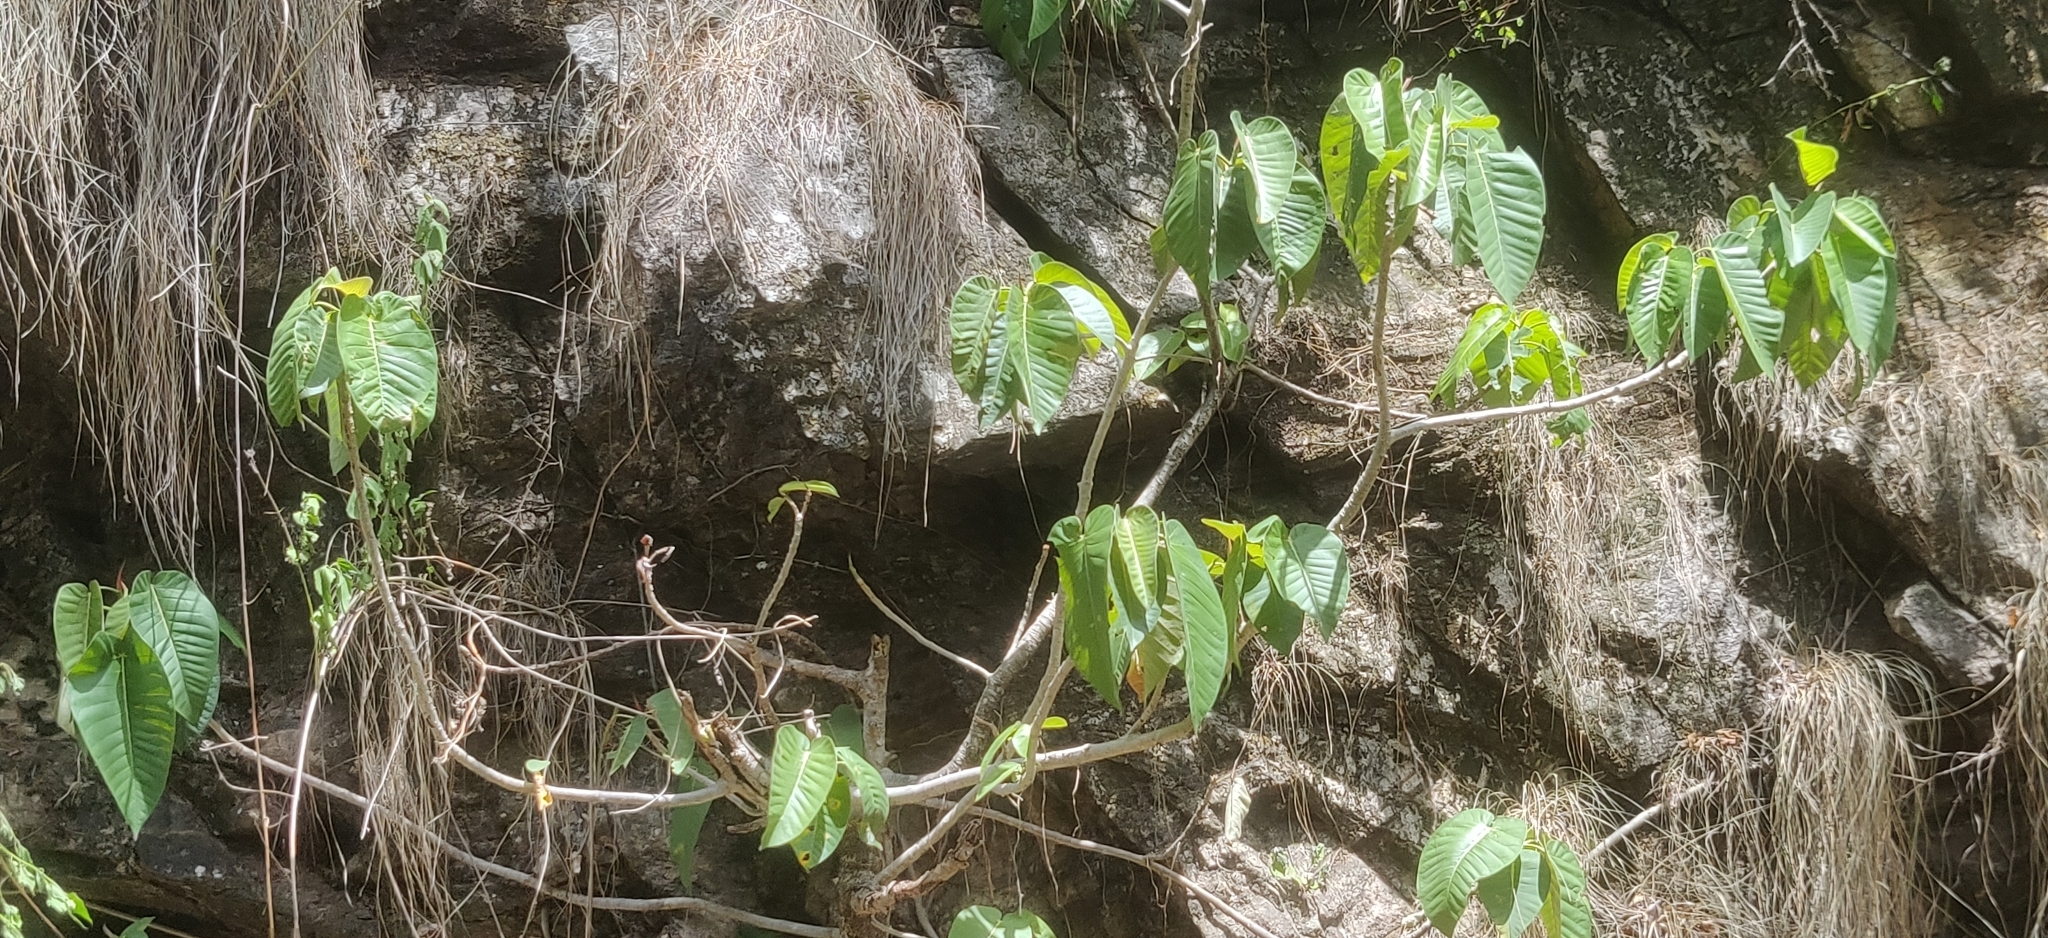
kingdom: Plantae
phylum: Tracheophyta
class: Magnoliopsida
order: Rosales
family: Moraceae
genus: Ficus
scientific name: Ficus anamalayana
